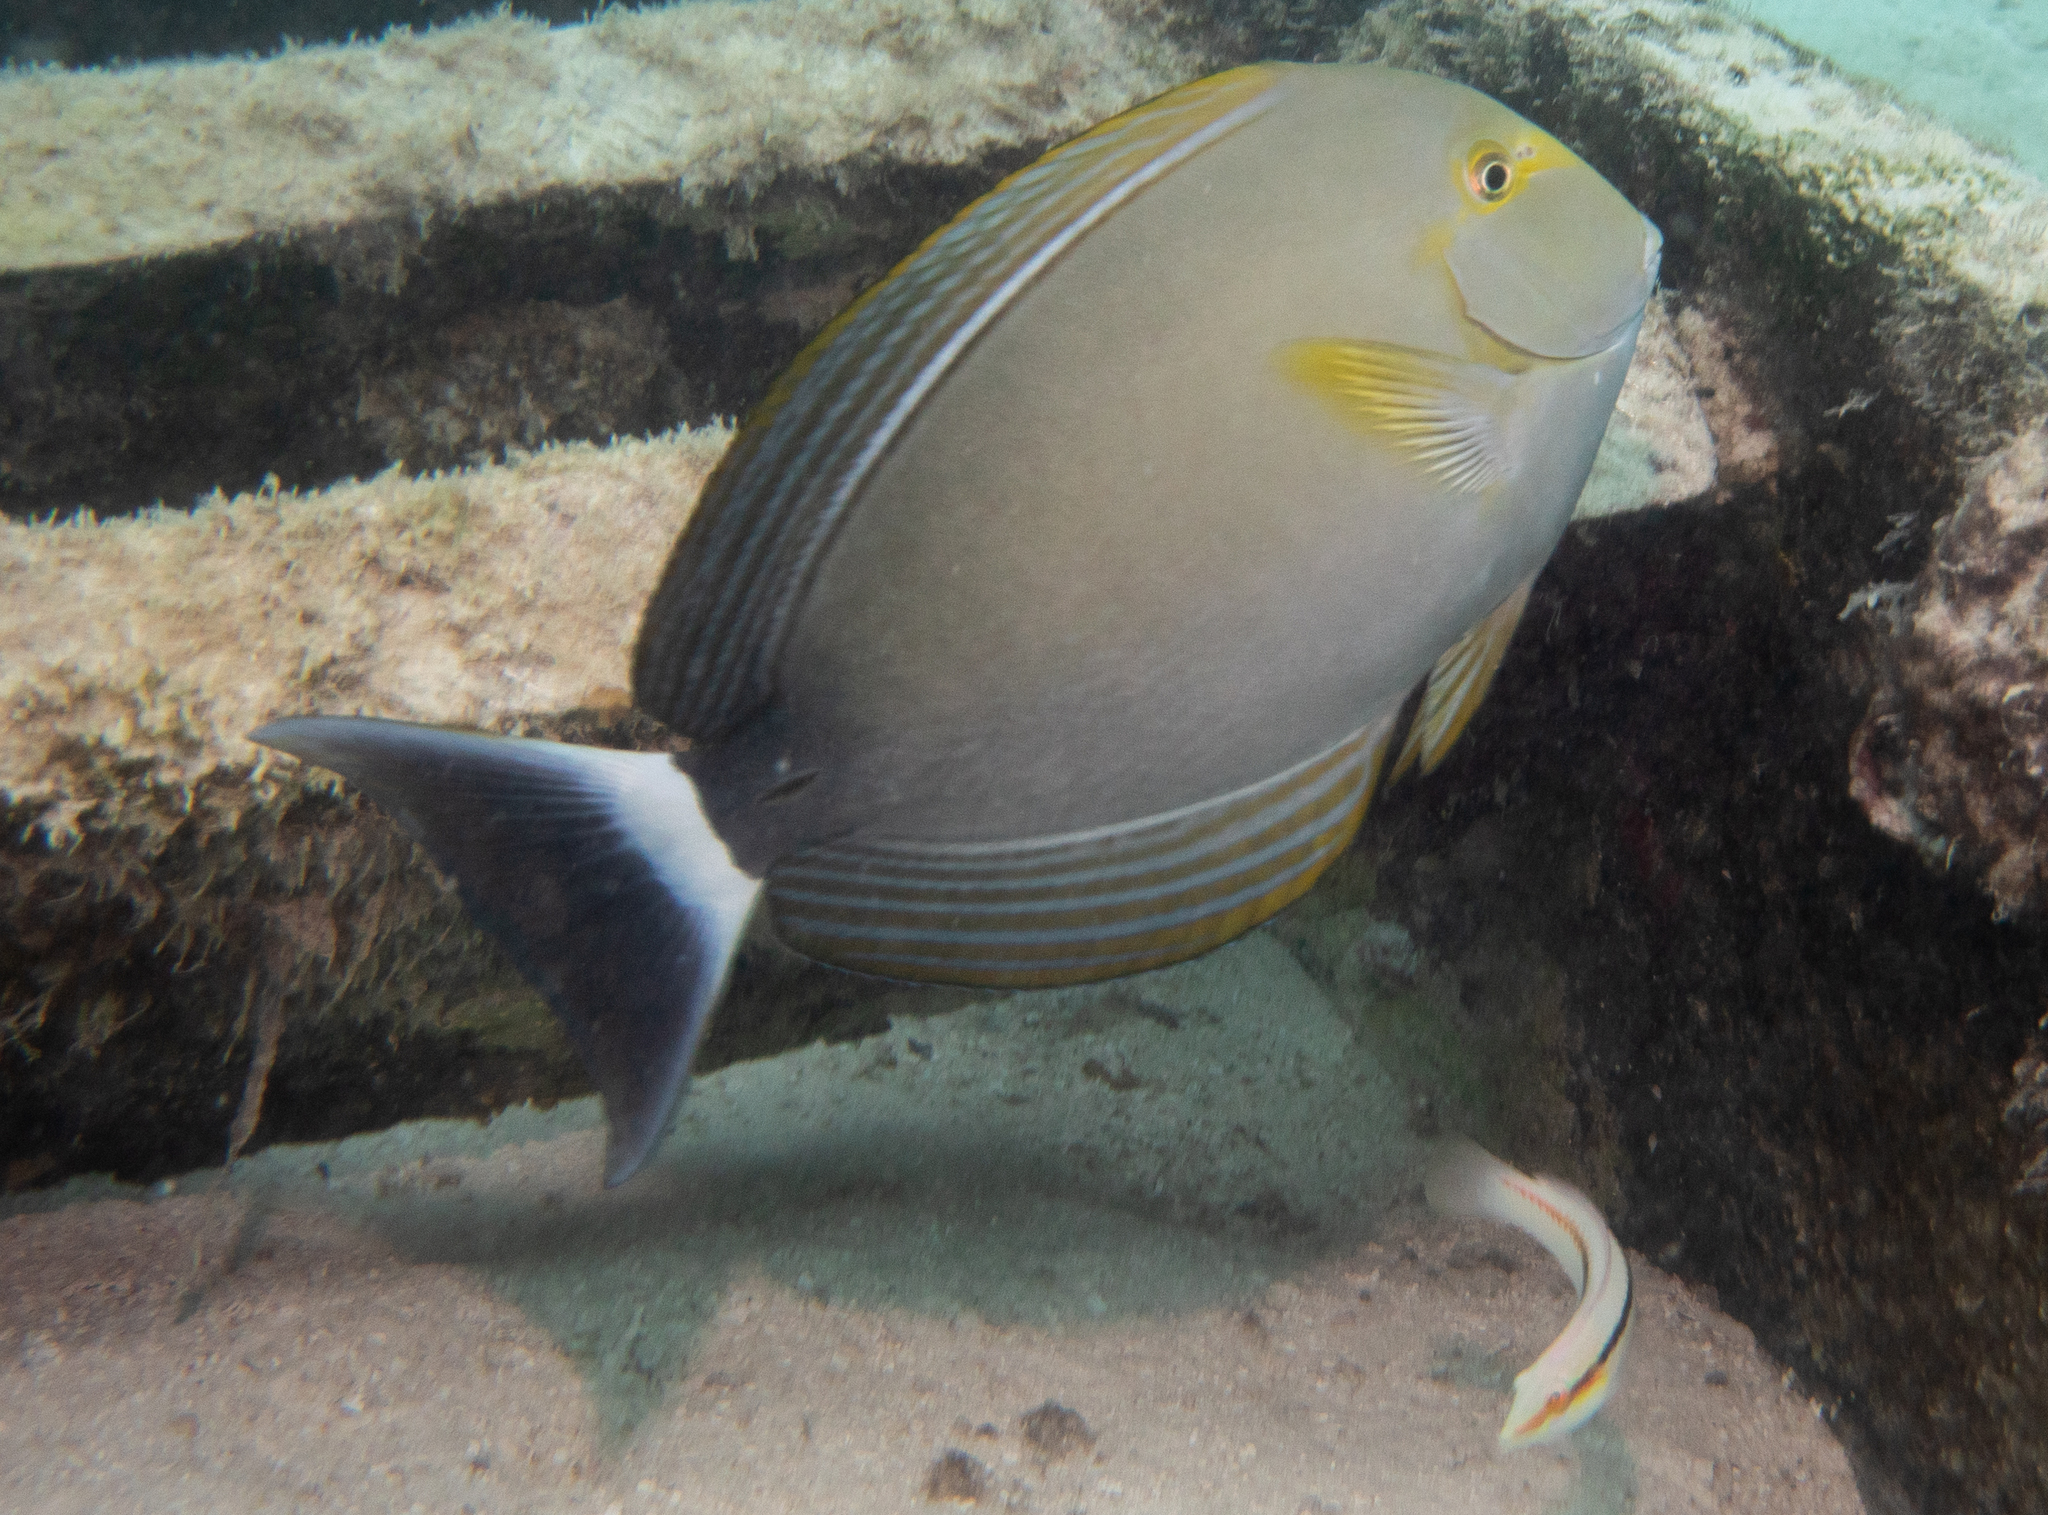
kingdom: Animalia
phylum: Chordata
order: Perciformes
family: Acanthuridae
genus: Acanthurus
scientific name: Acanthurus xanthopterus
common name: Cuvier's surgeonfish
